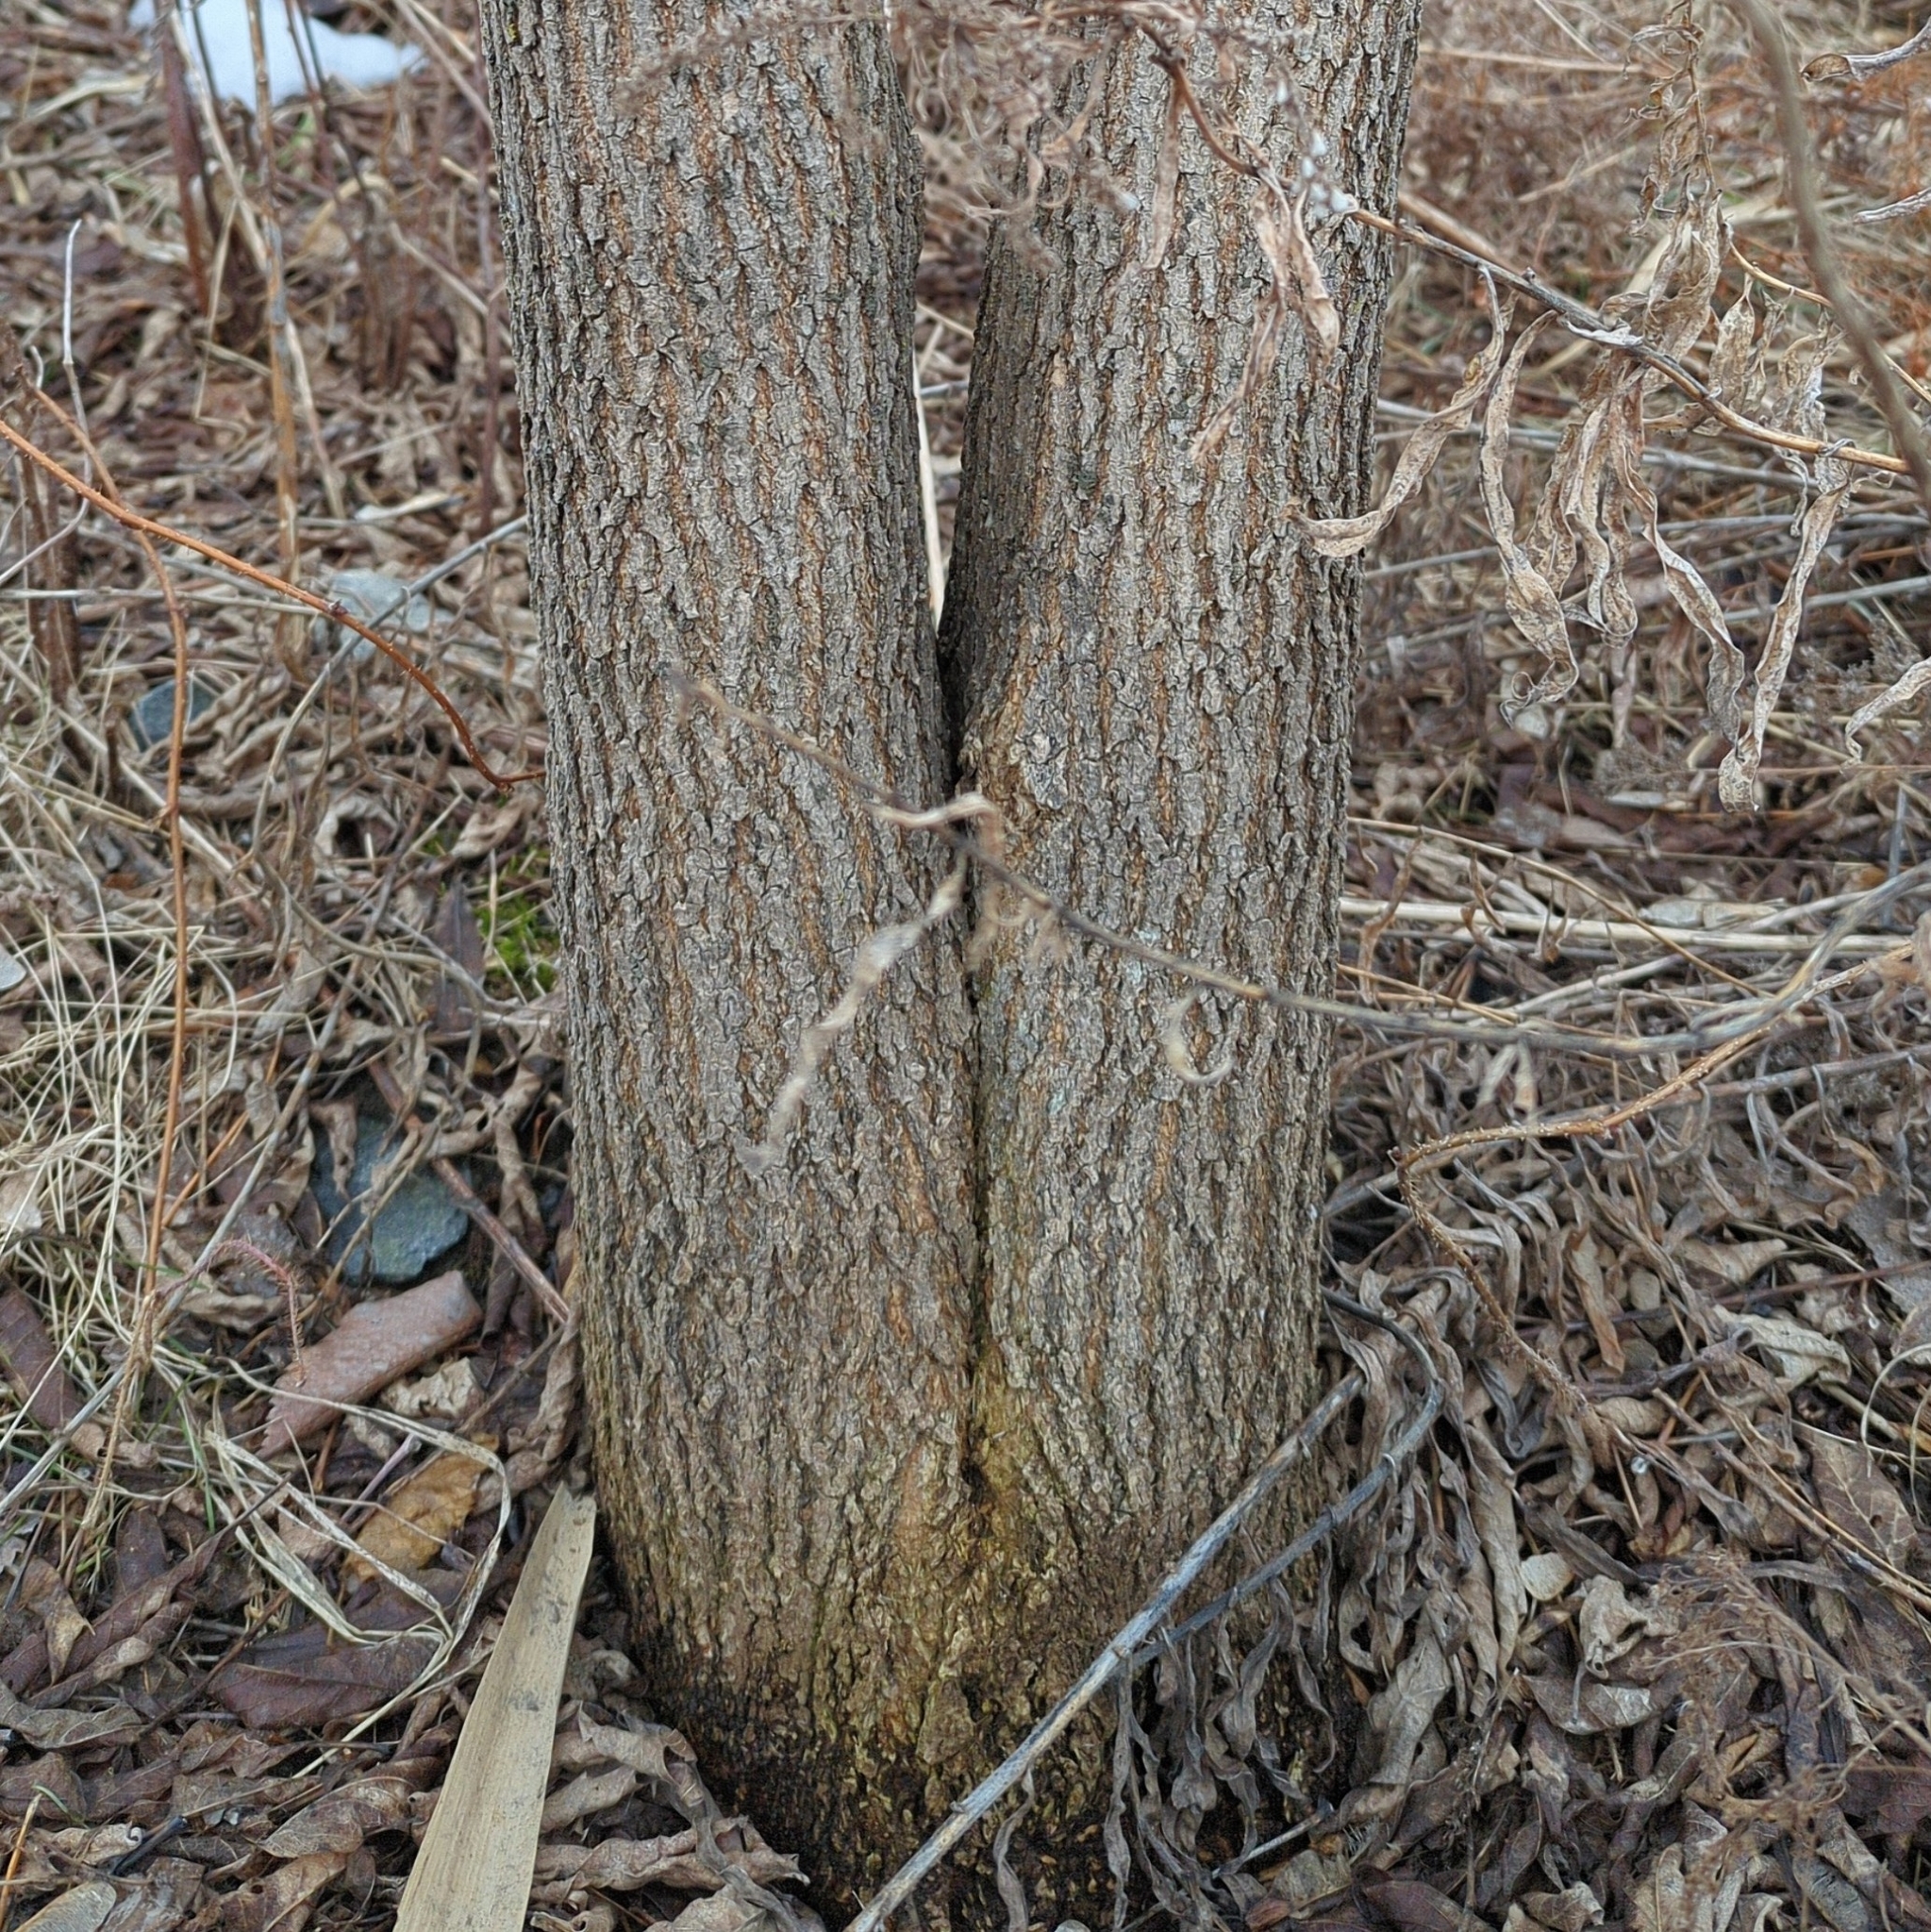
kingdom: Plantae
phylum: Tracheophyta
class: Magnoliopsida
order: Sapindales
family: Sapindaceae
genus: Acer
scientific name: Acer negundo
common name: Ashleaf maple
